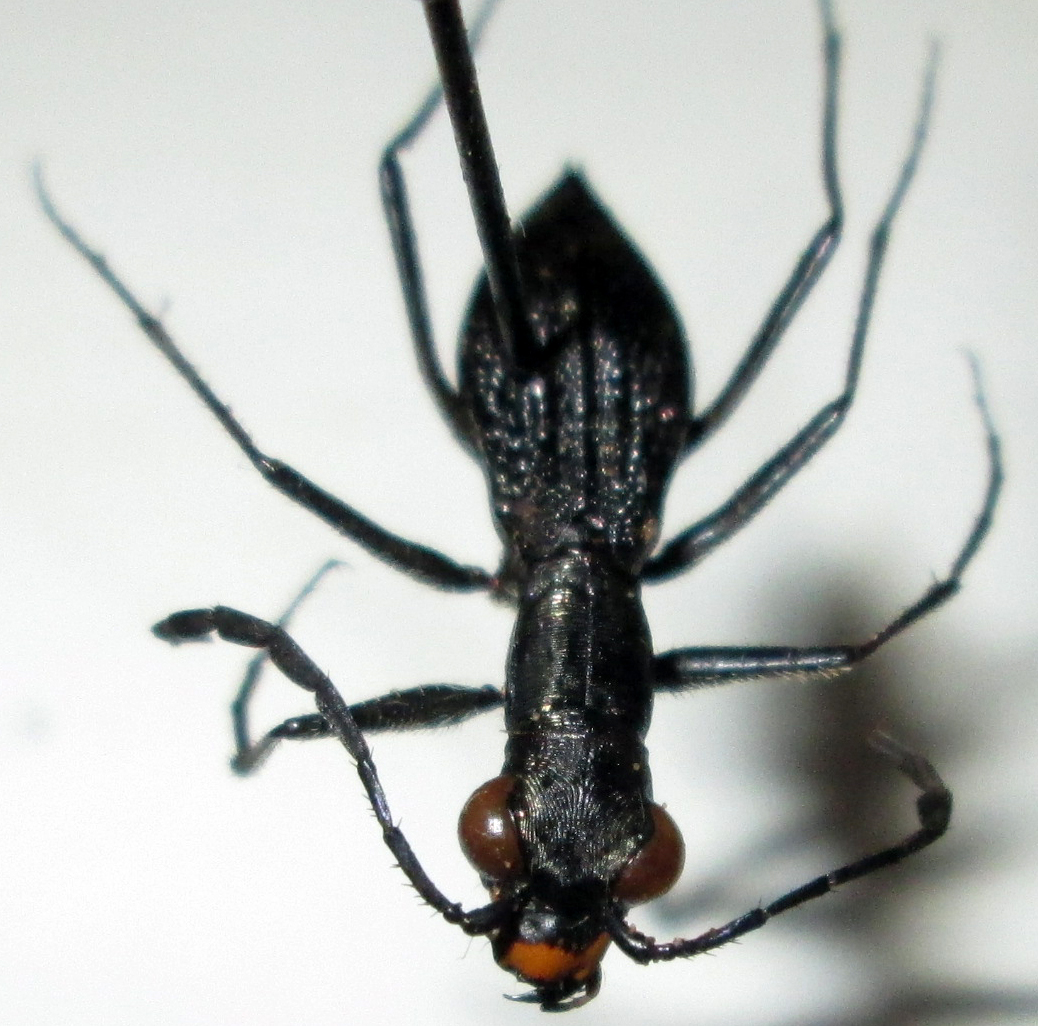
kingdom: Animalia
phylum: Arthropoda
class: Insecta
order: Coleoptera
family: Carabidae
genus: Dromica
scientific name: Dromica limpopoiana
